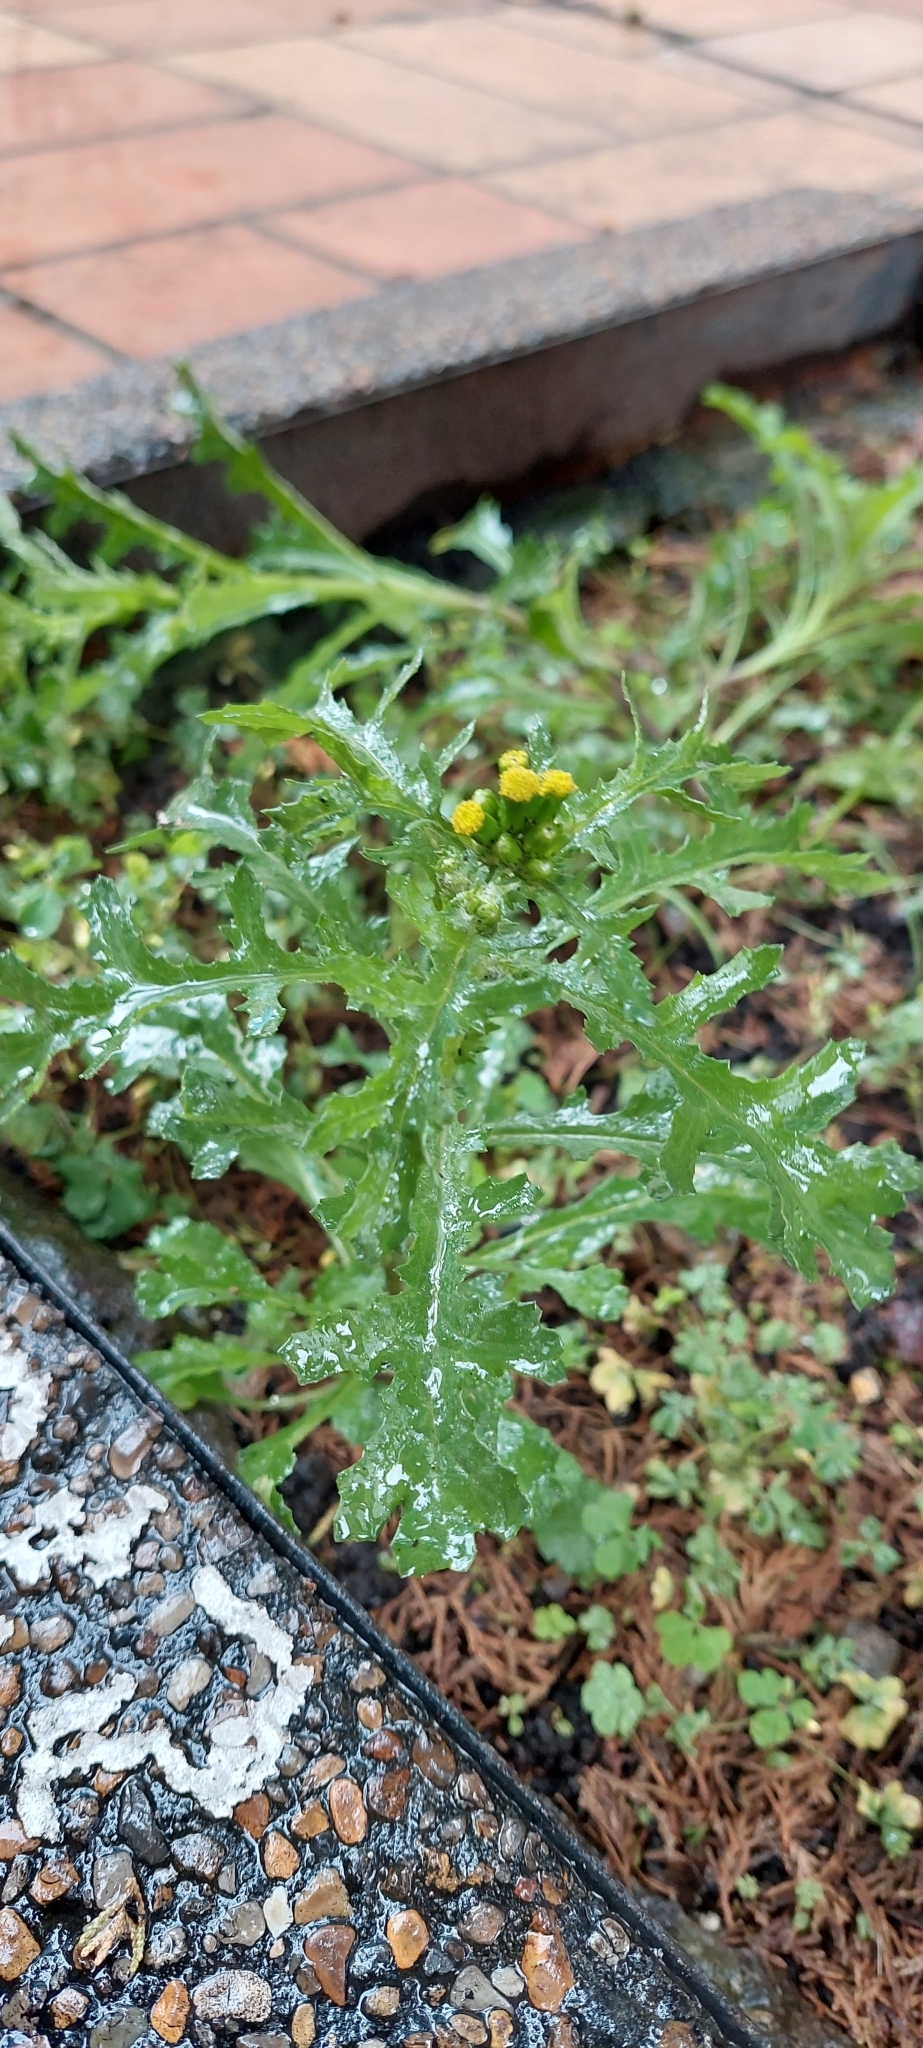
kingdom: Plantae
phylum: Tracheophyta
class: Magnoliopsida
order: Asterales
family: Asteraceae
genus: Senecio
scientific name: Senecio vulgaris
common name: Old-man-in-the-spring
